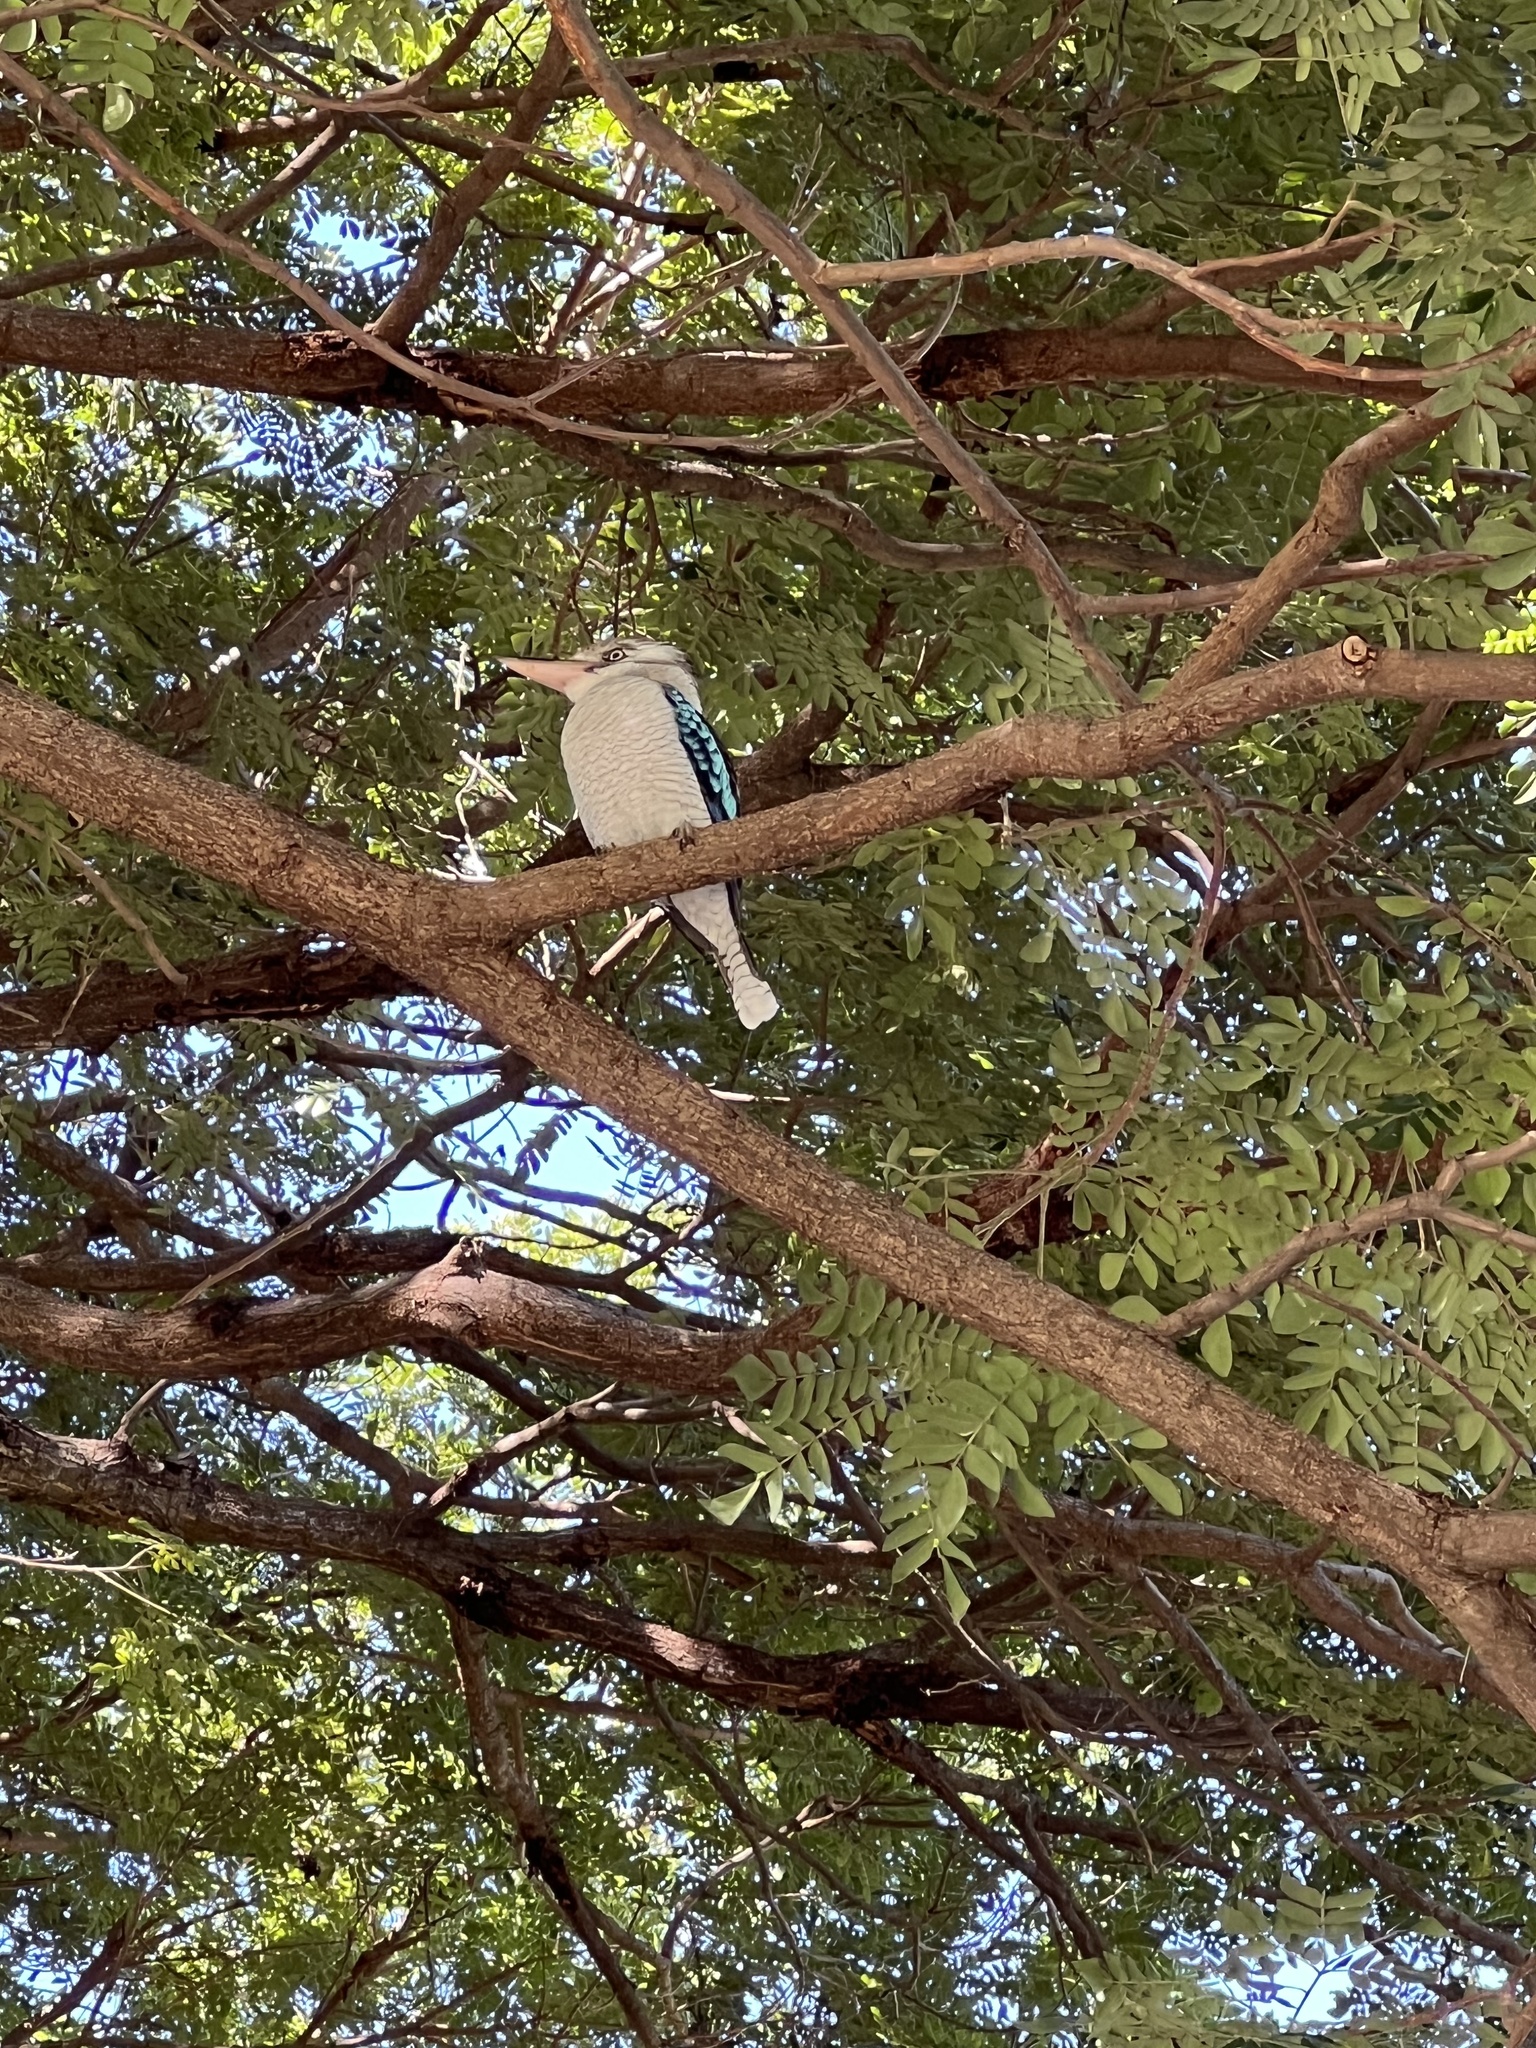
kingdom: Animalia
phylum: Chordata
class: Aves
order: Coraciiformes
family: Alcedinidae
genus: Dacelo
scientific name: Dacelo leachii
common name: Blue-winged kookaburra
